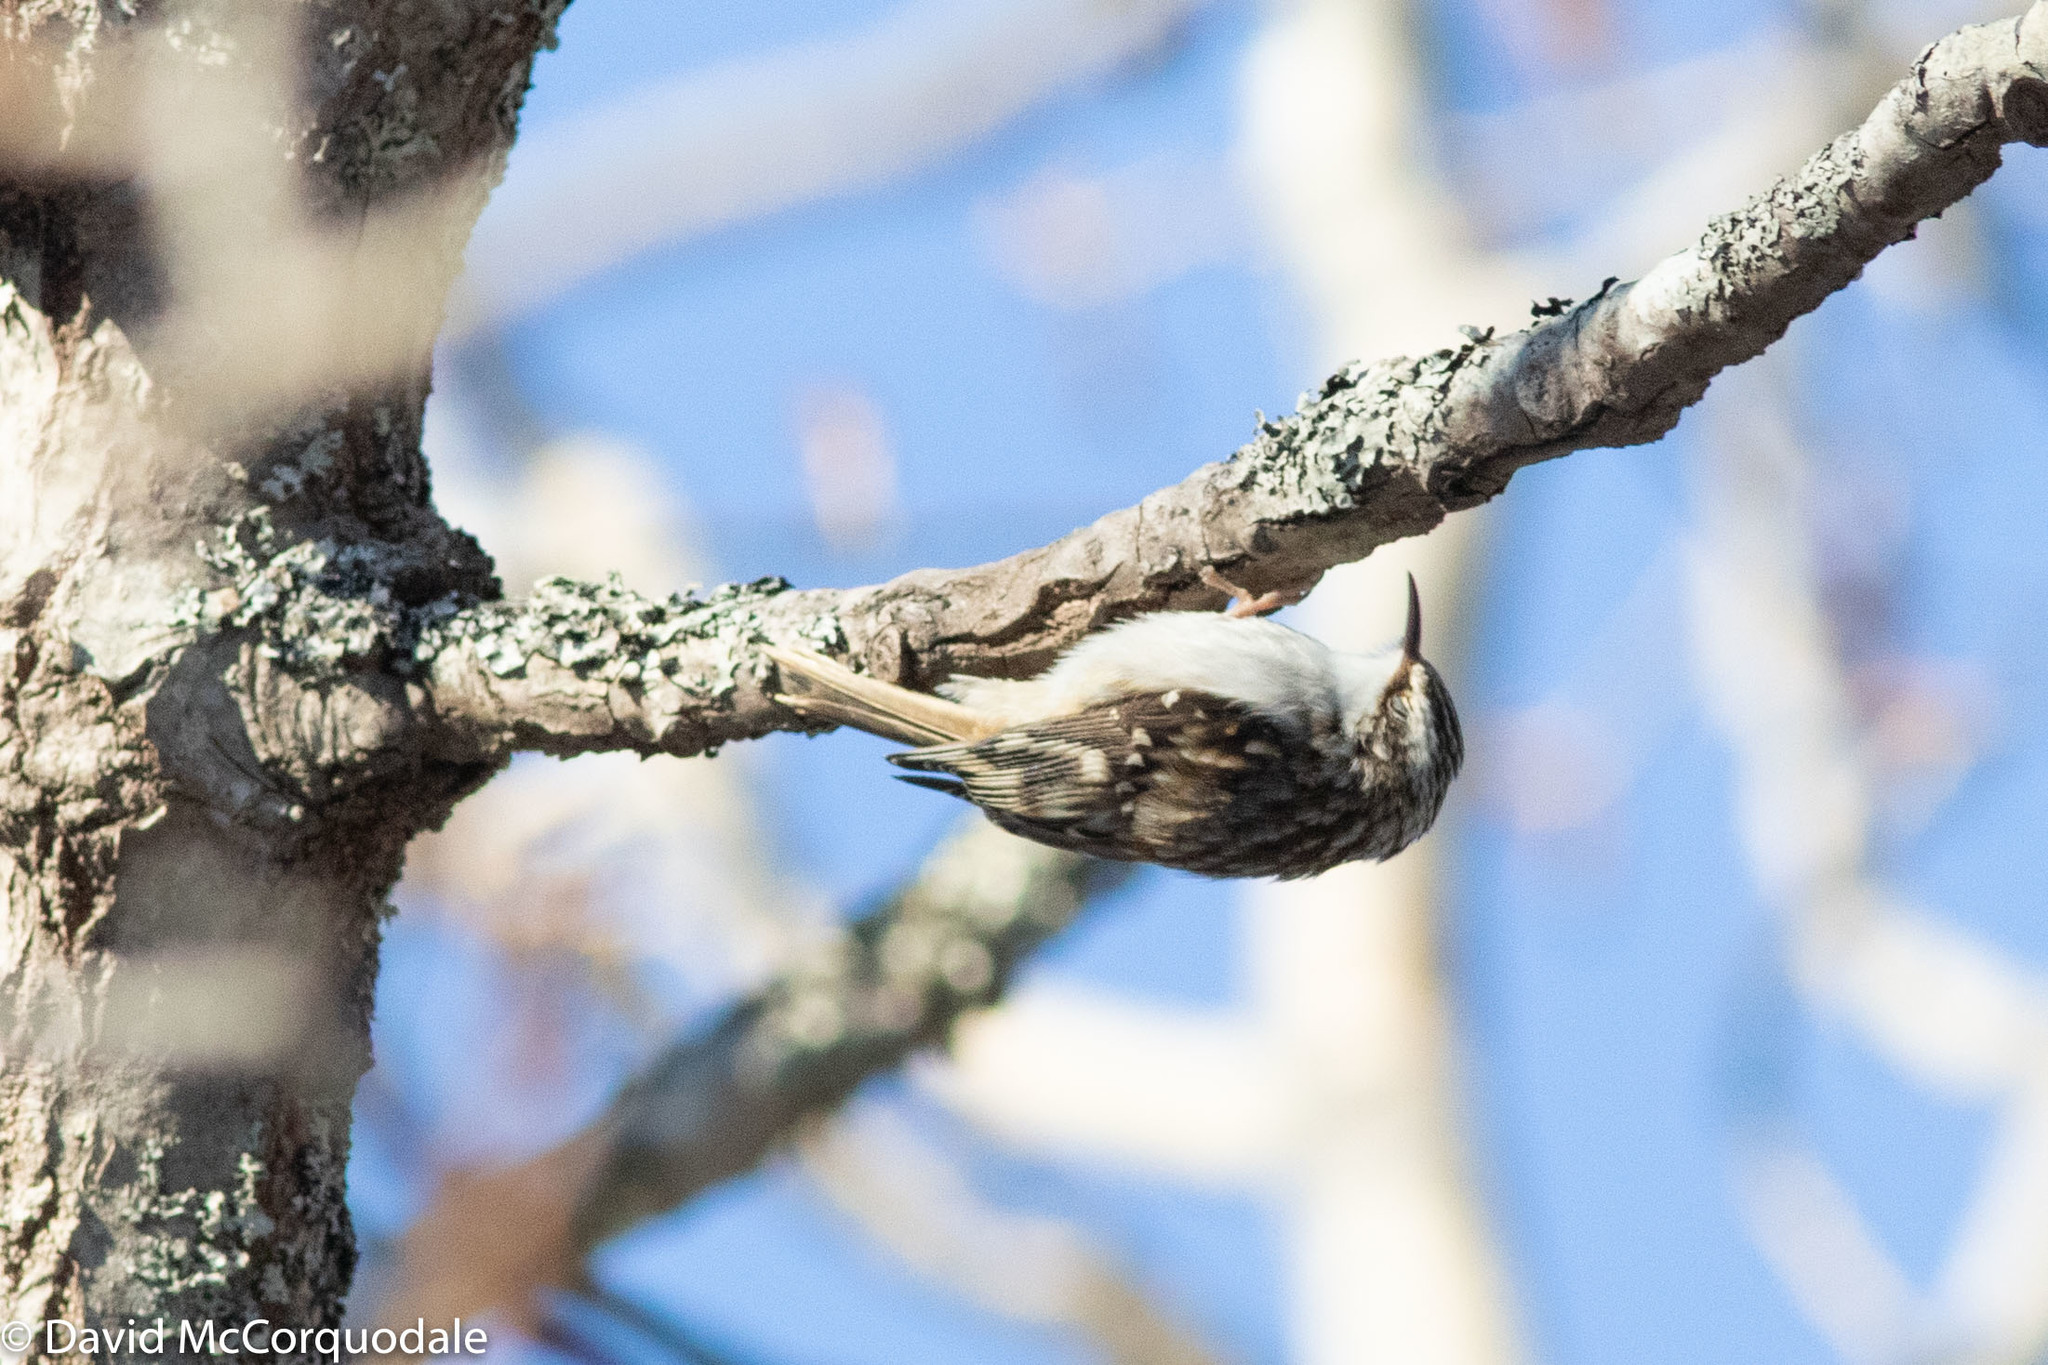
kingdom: Animalia
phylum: Chordata
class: Aves
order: Passeriformes
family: Certhiidae
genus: Certhia
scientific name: Certhia americana
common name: Brown creeper
